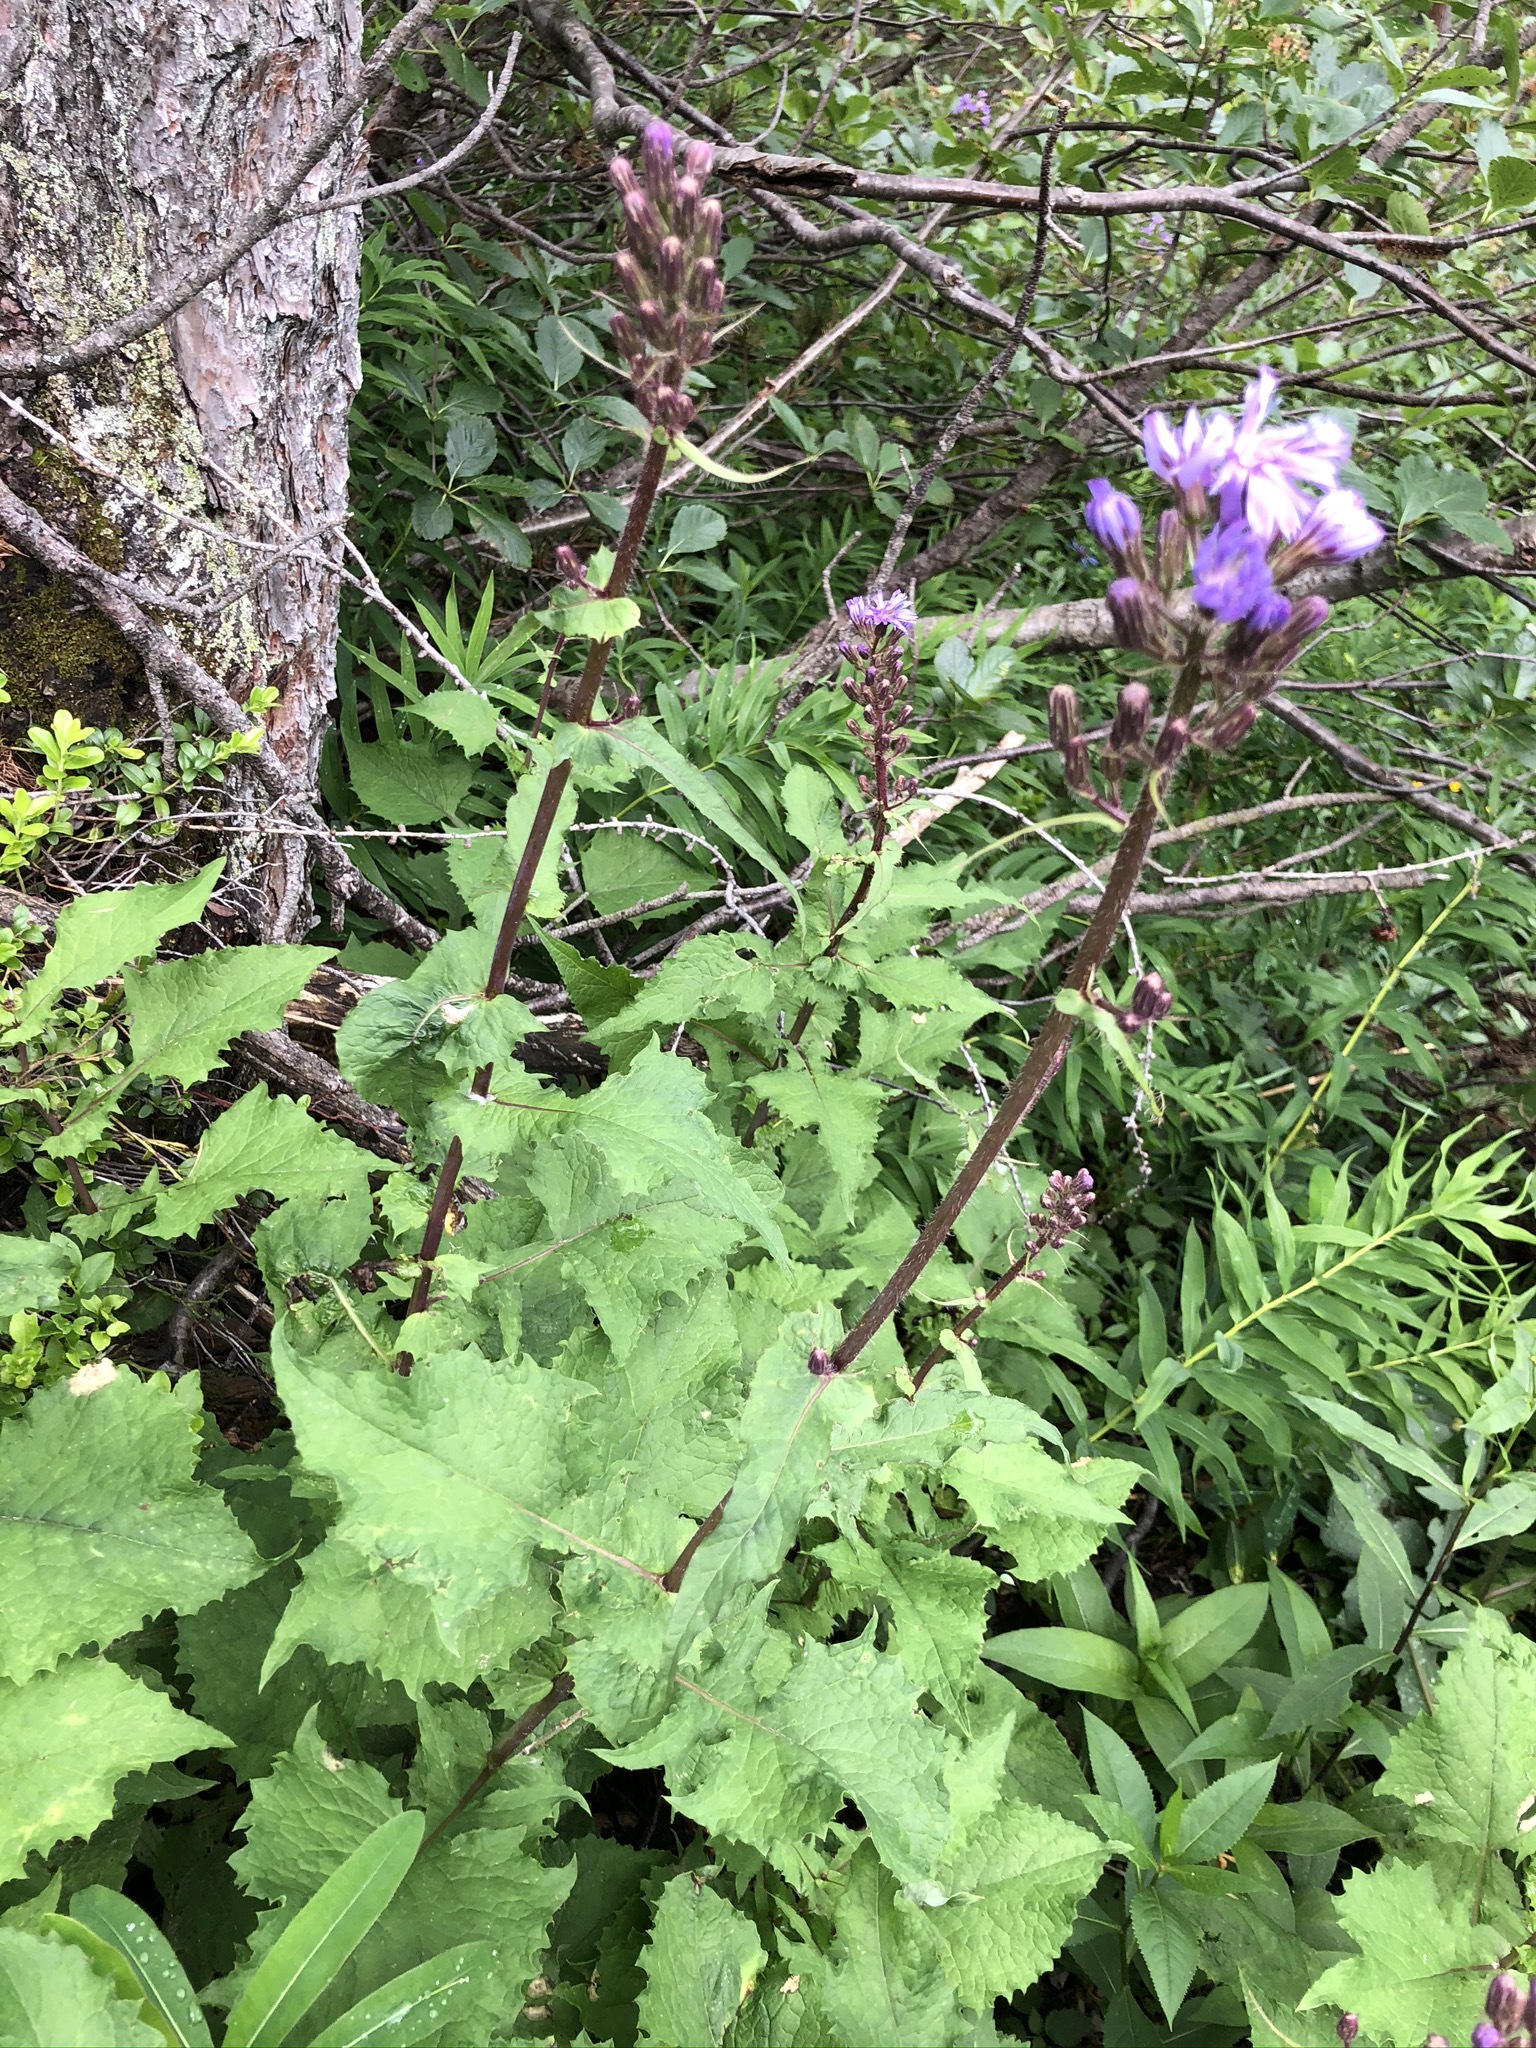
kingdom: Plantae
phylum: Tracheophyta
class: Magnoliopsida
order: Asterales
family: Asteraceae
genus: Cicerbita
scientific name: Cicerbita alpina
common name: Alpine blue-sow-thistle
